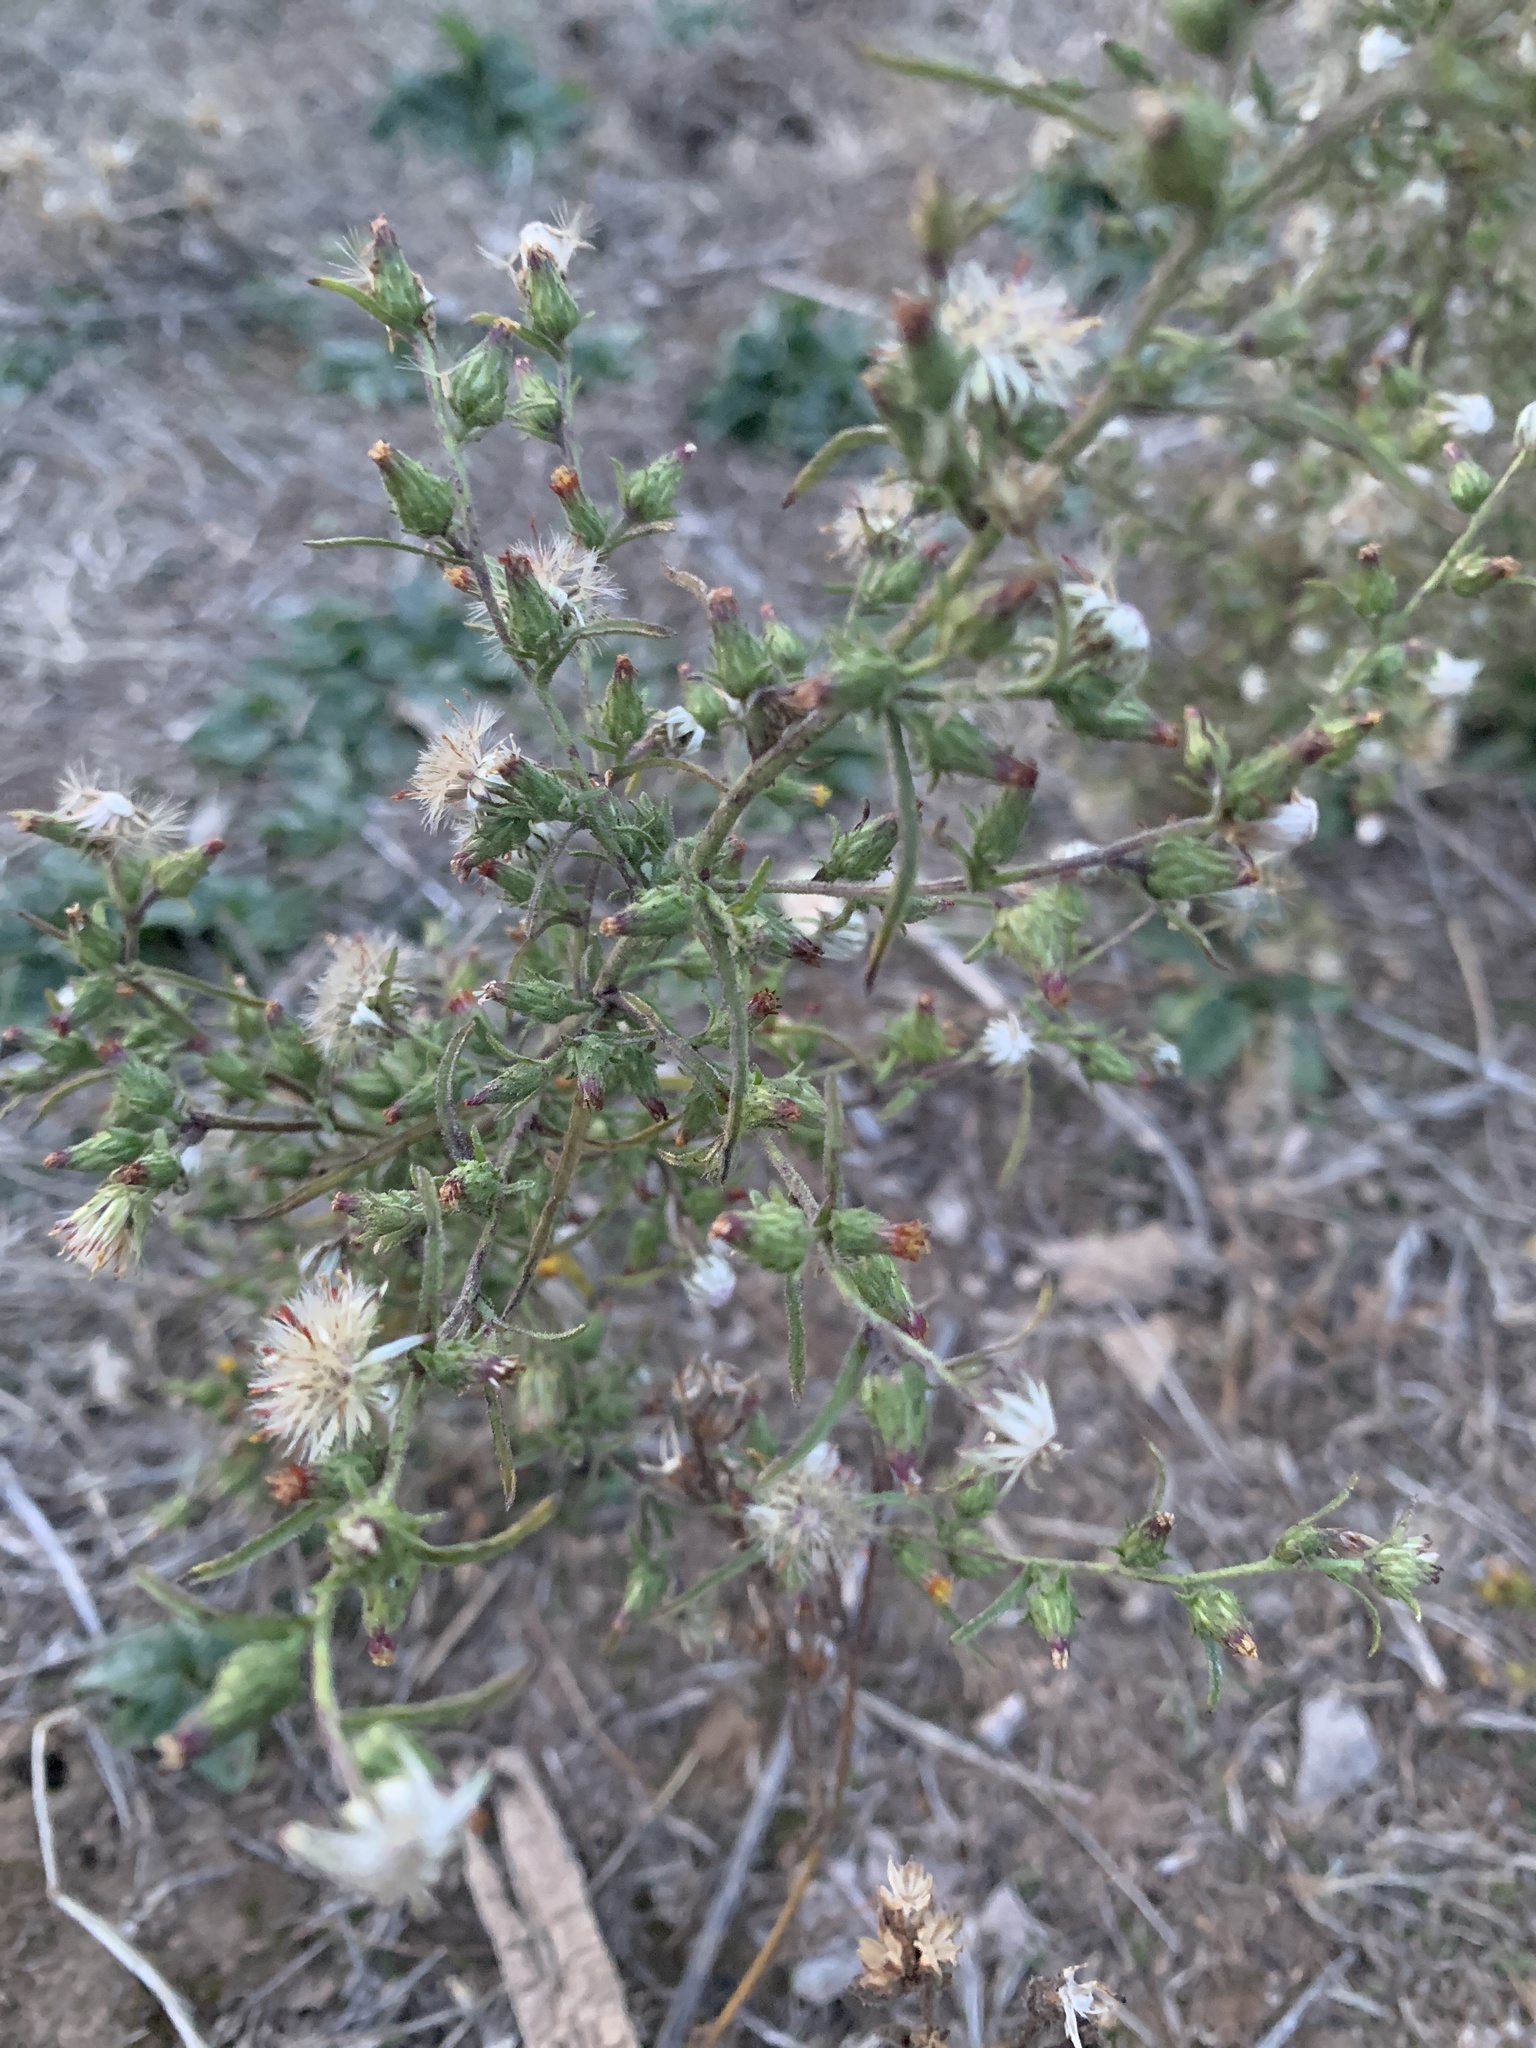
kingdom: Plantae
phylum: Tracheophyta
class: Magnoliopsida
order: Asterales
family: Asteraceae
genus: Dittrichia
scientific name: Dittrichia graveolens
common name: Stinking fleabane
